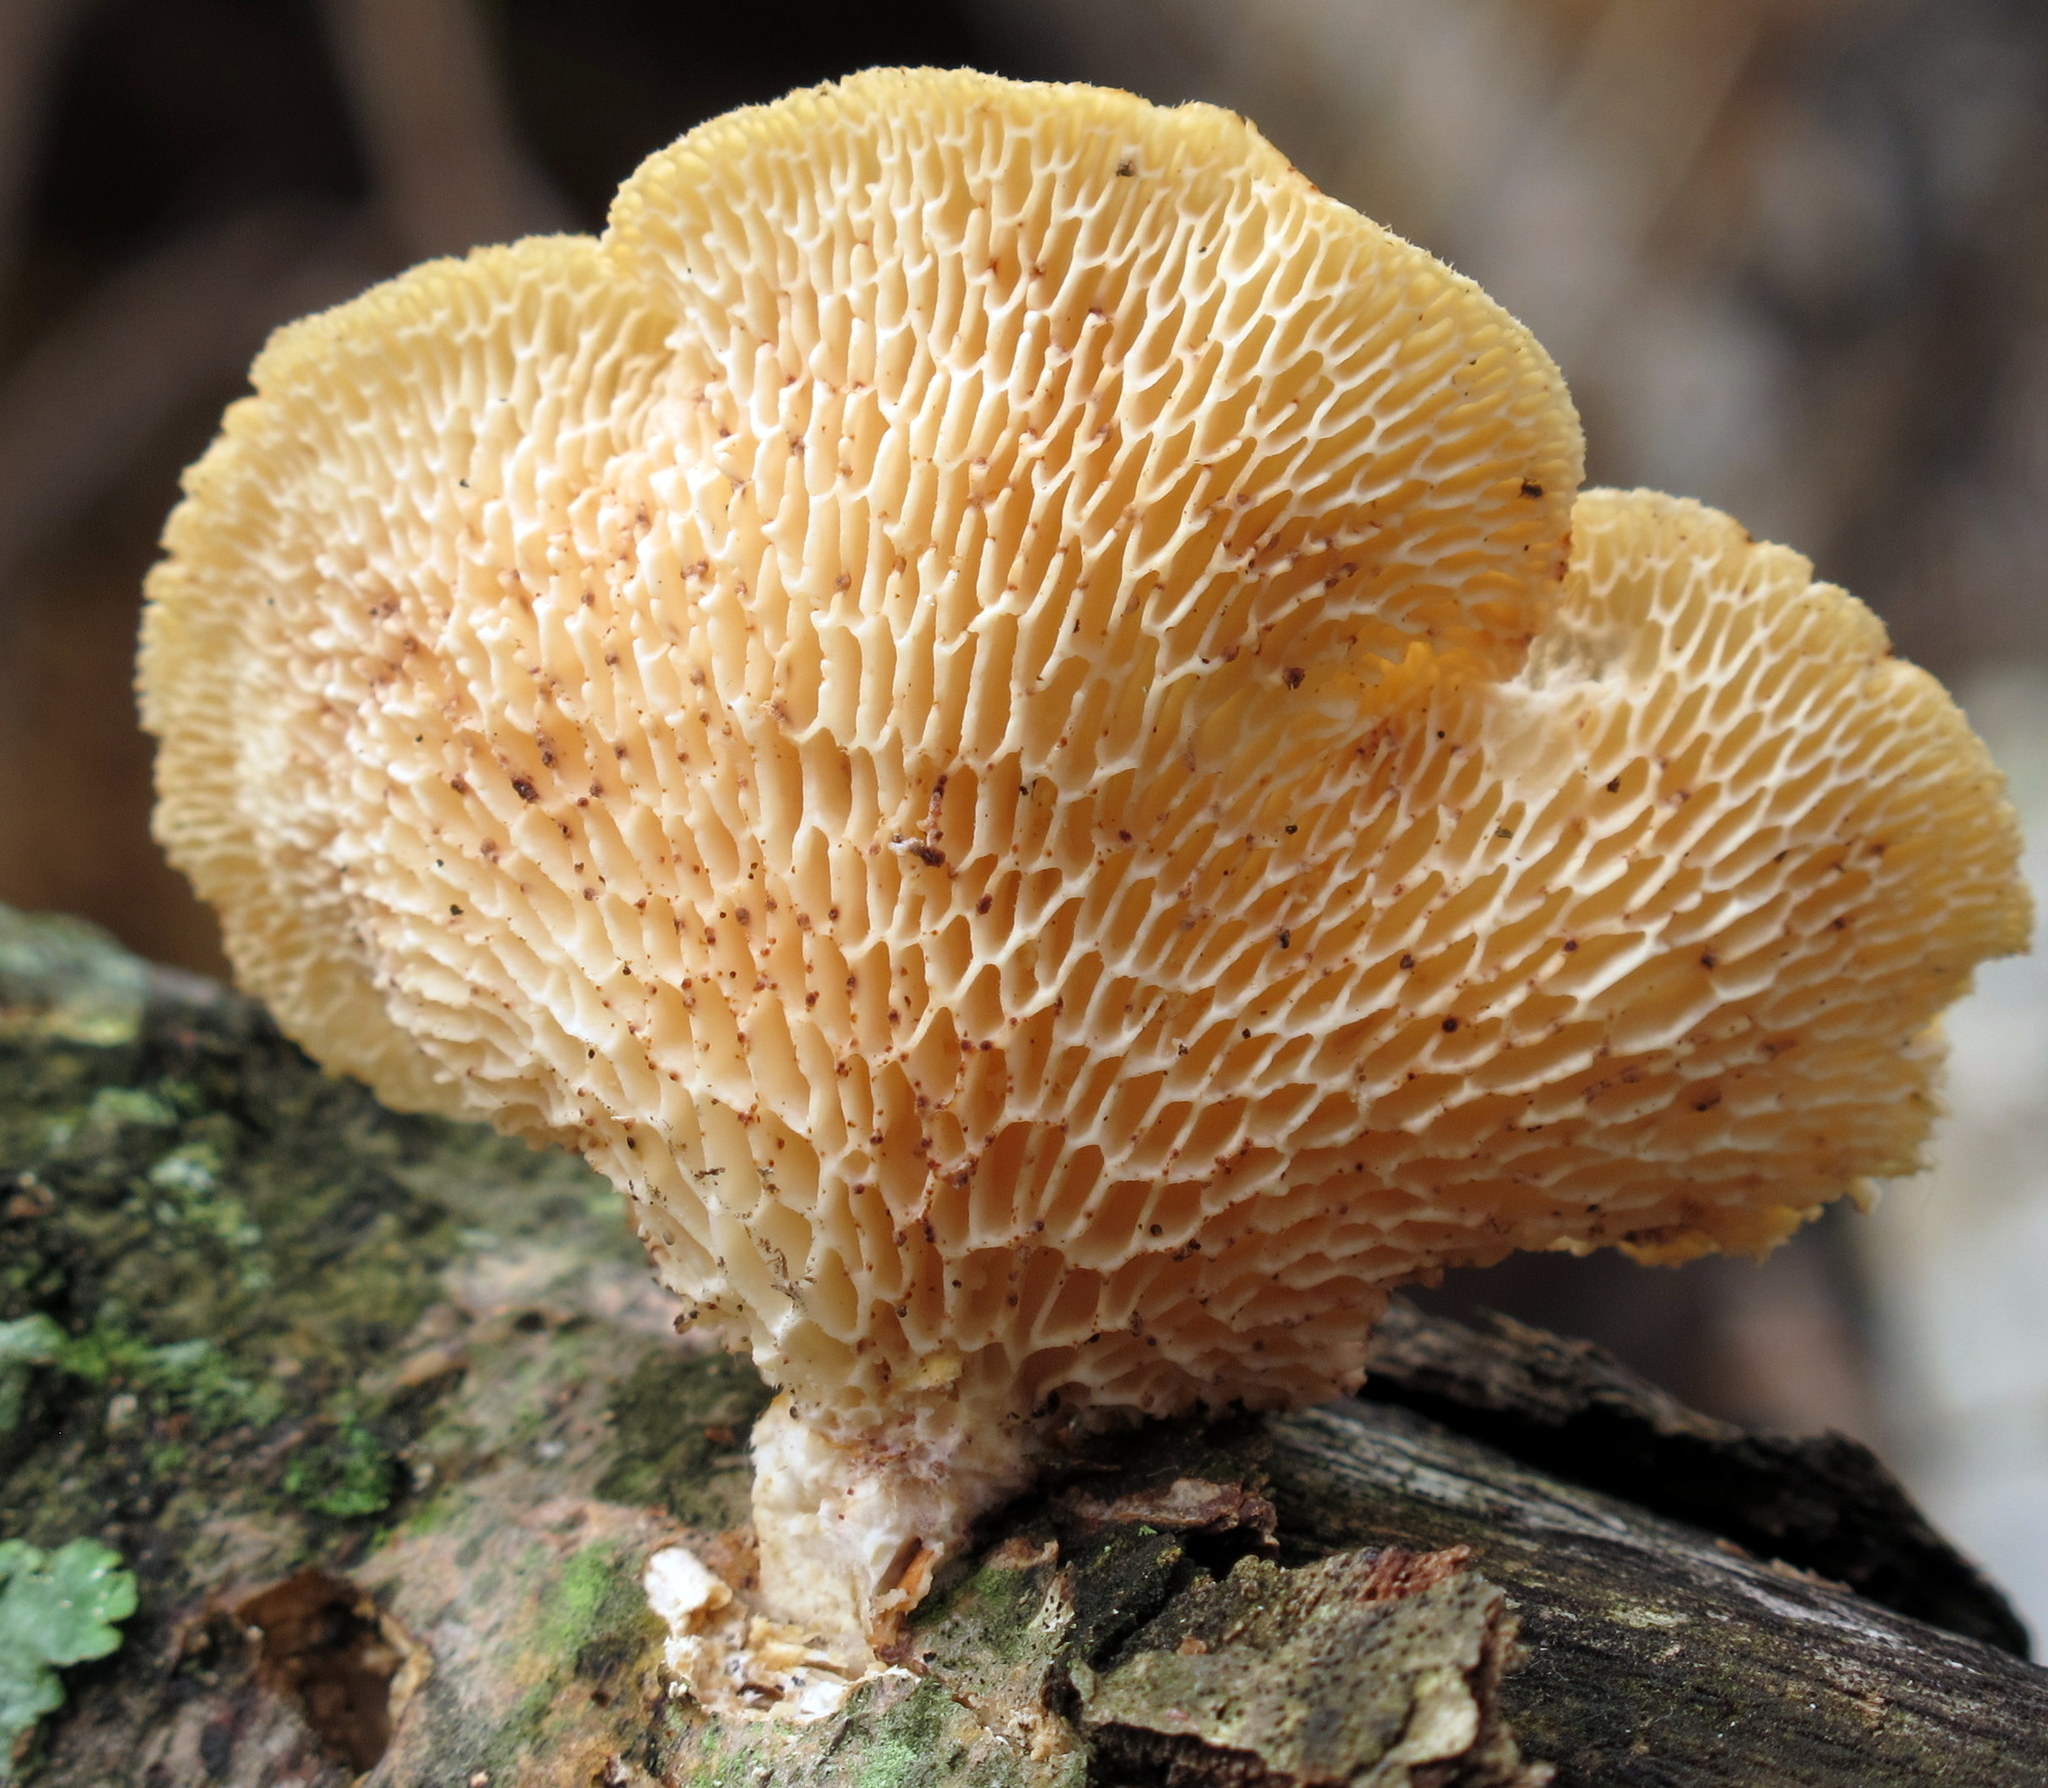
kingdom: Fungi
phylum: Basidiomycota
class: Agaricomycetes
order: Polyporales
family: Polyporaceae
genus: Neofavolus
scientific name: Neofavolus alveolaris
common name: Hexagonal-pored polypore
